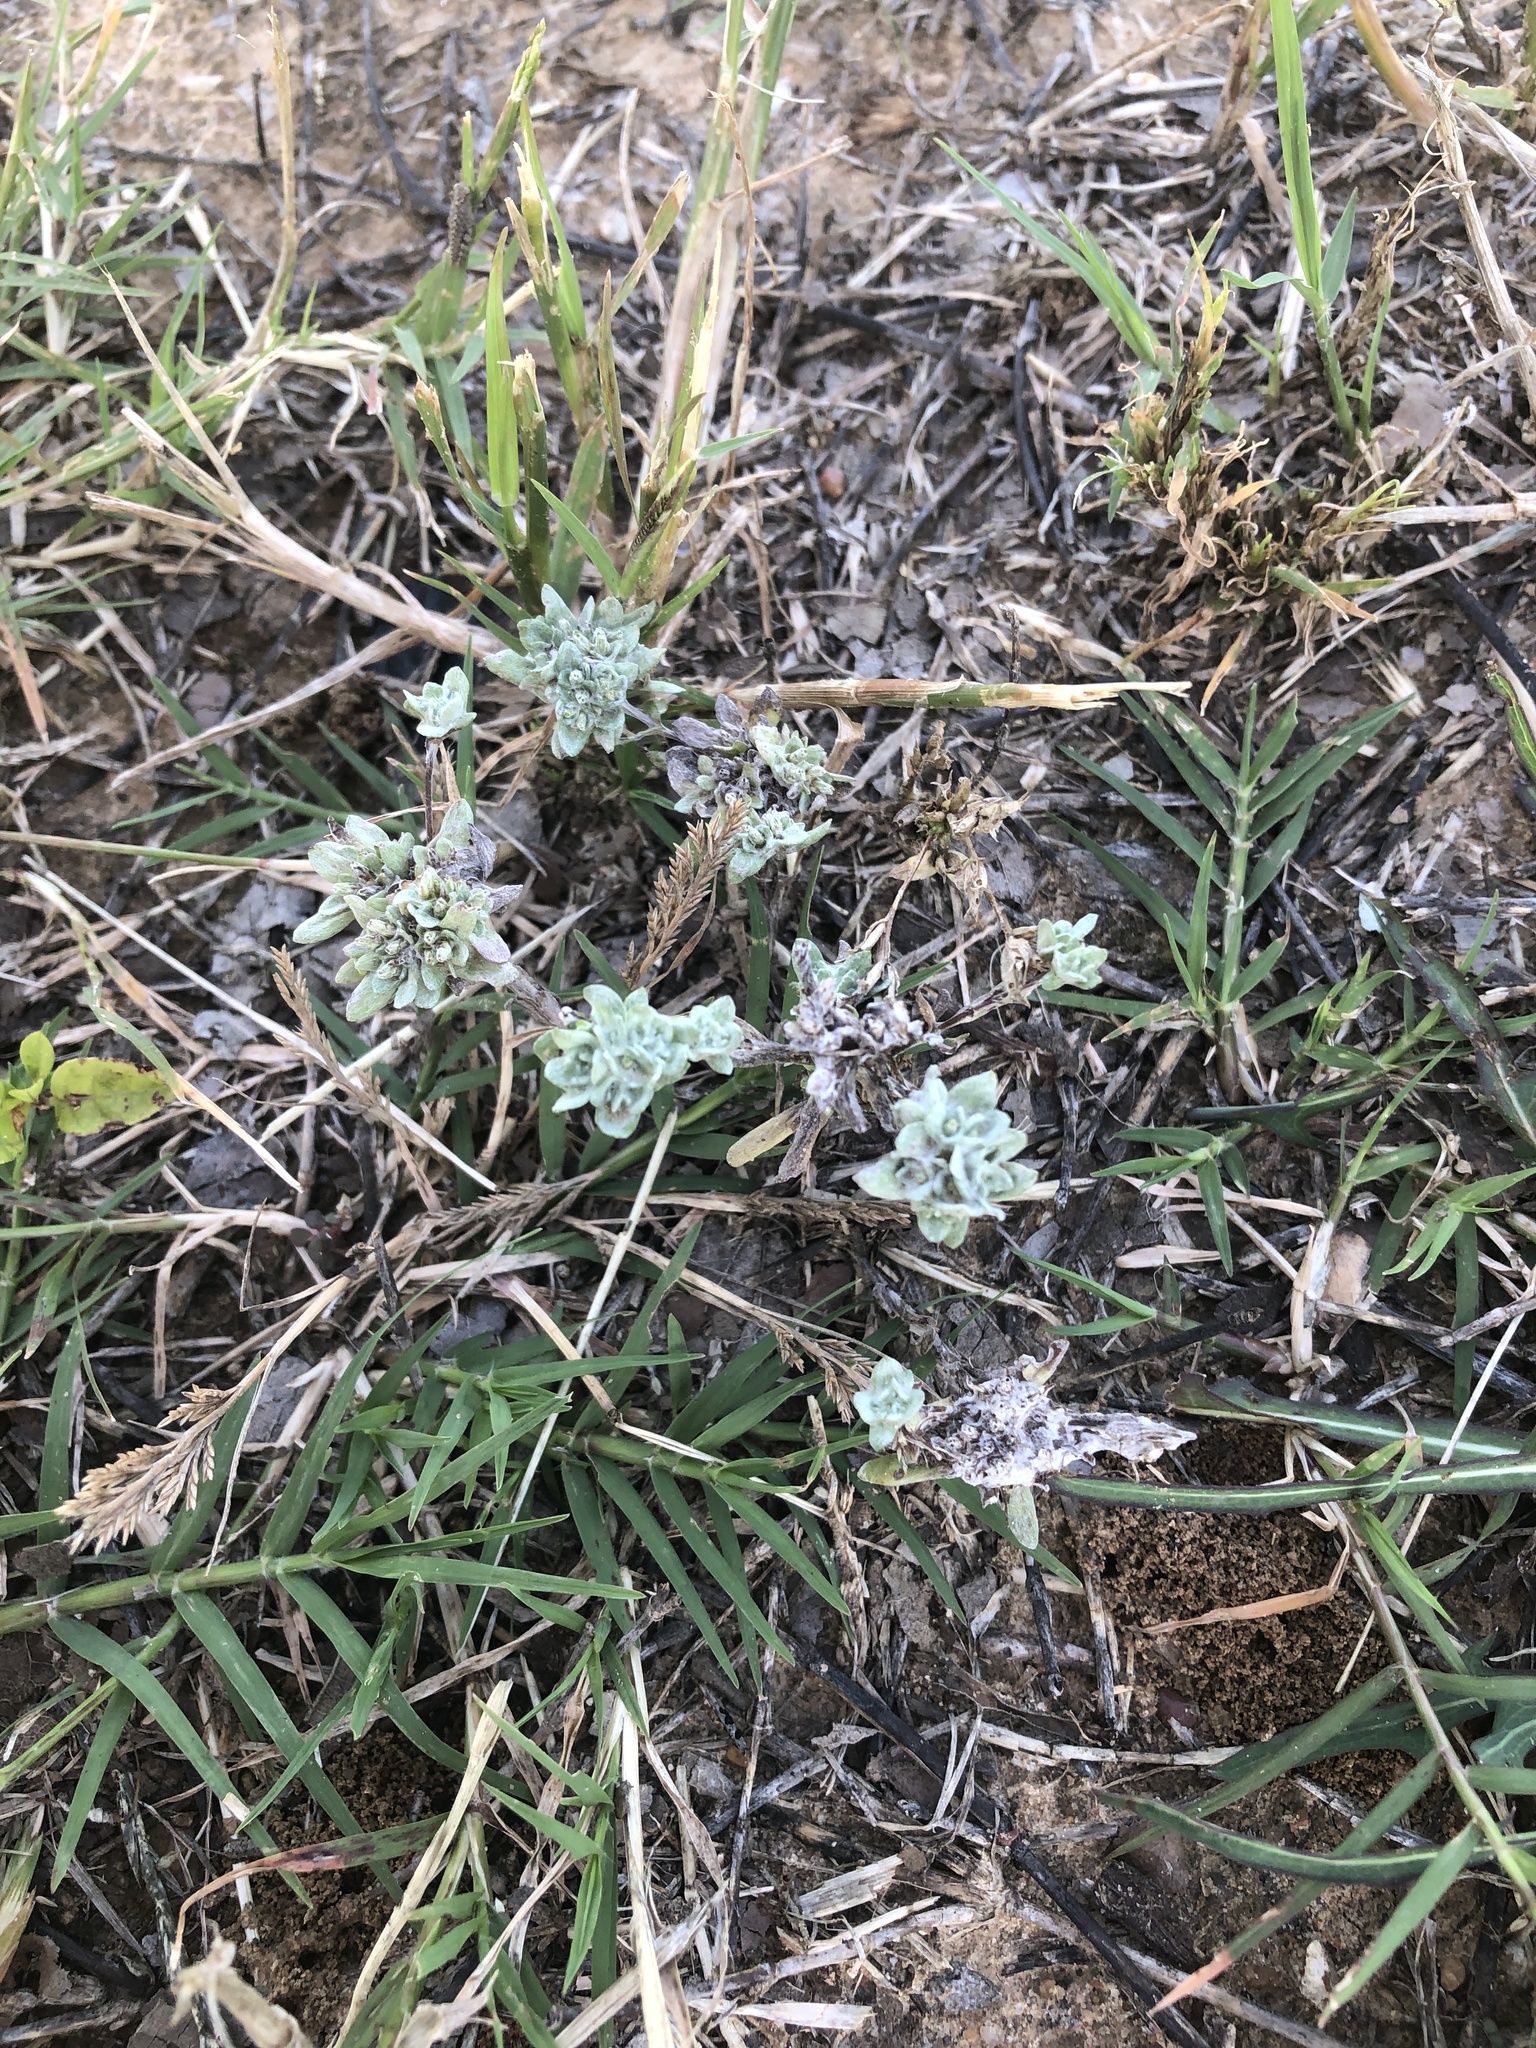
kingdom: Plantae
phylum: Tracheophyta
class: Magnoliopsida
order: Asterales
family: Asteraceae
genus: Diaperia
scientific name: Diaperia prolifera
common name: Big-head rabbit-tobacco
